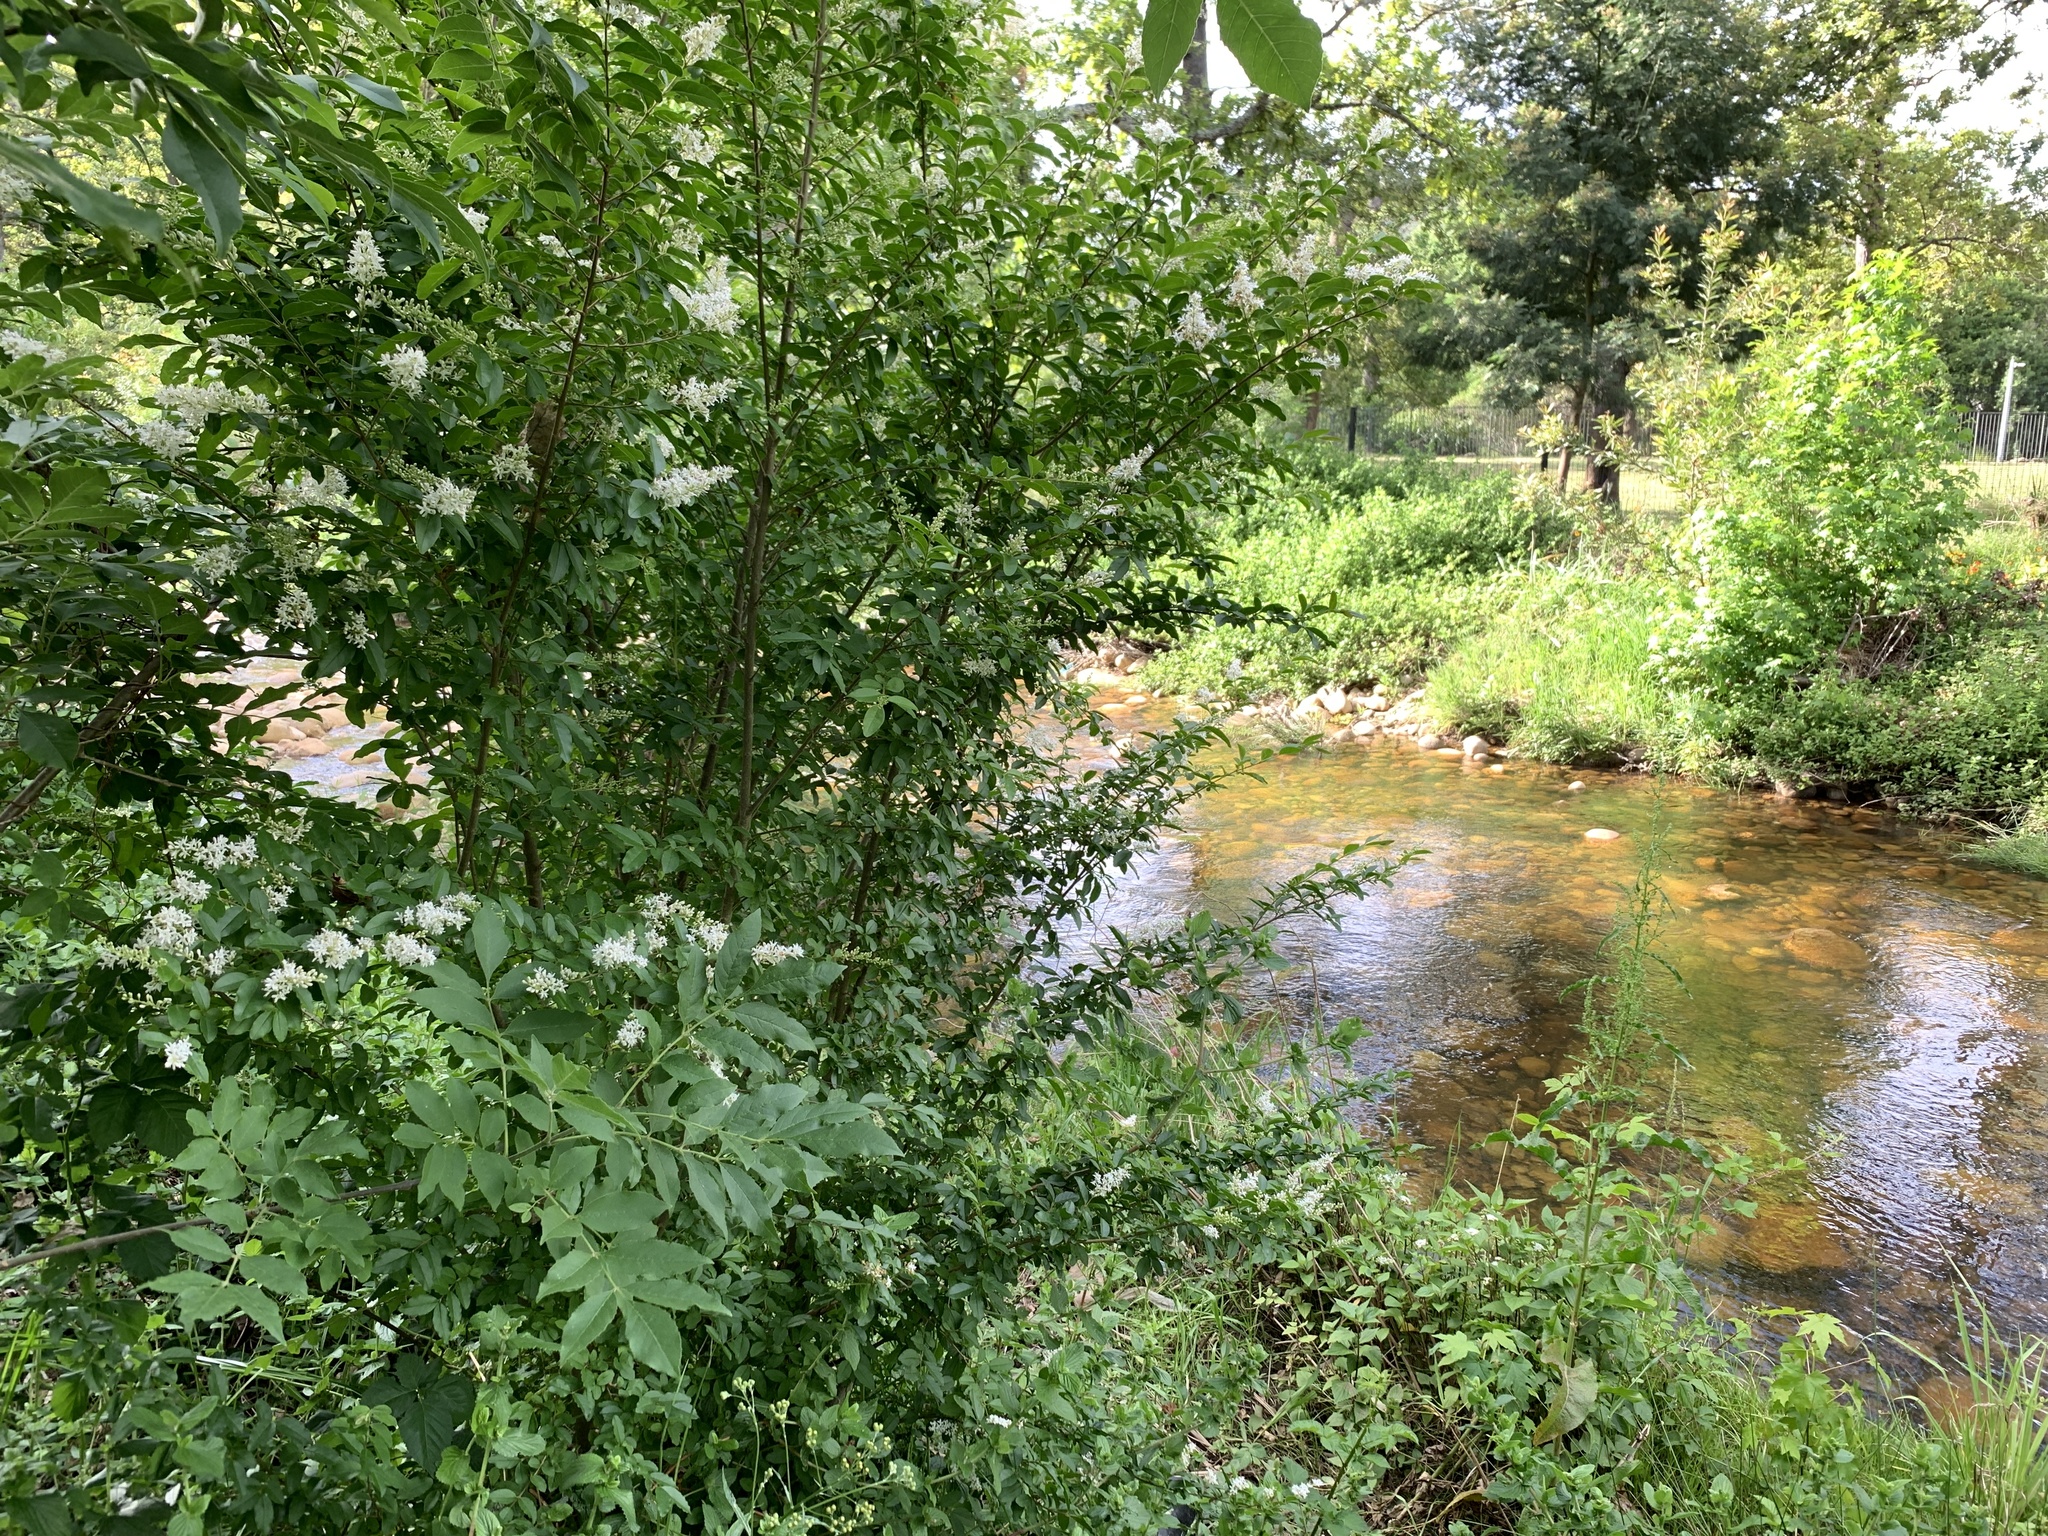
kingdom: Plantae
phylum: Tracheophyta
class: Magnoliopsida
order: Lamiales
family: Oleaceae
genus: Ligustrum
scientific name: Ligustrum sinense
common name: Chinese privet
